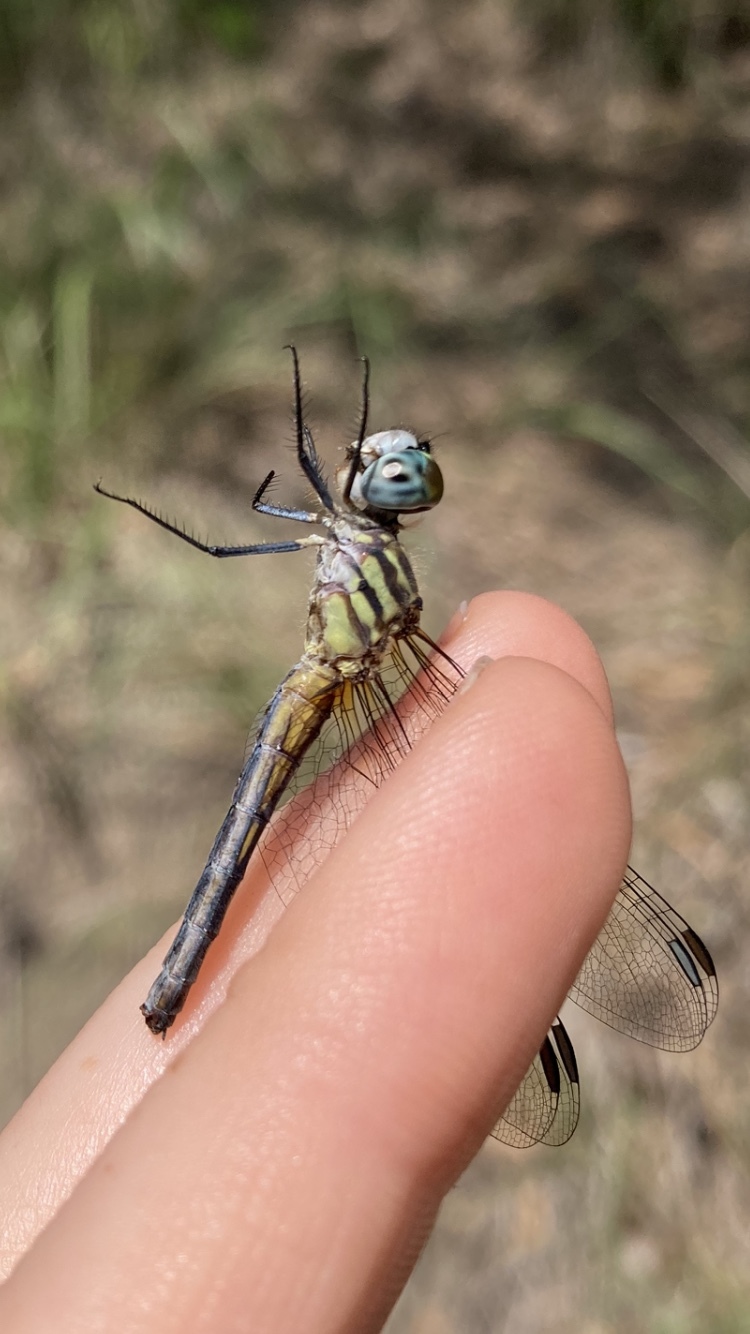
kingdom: Animalia
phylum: Arthropoda
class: Insecta
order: Odonata
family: Libellulidae
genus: Pachydiplax
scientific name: Pachydiplax longipennis
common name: Blue dasher
